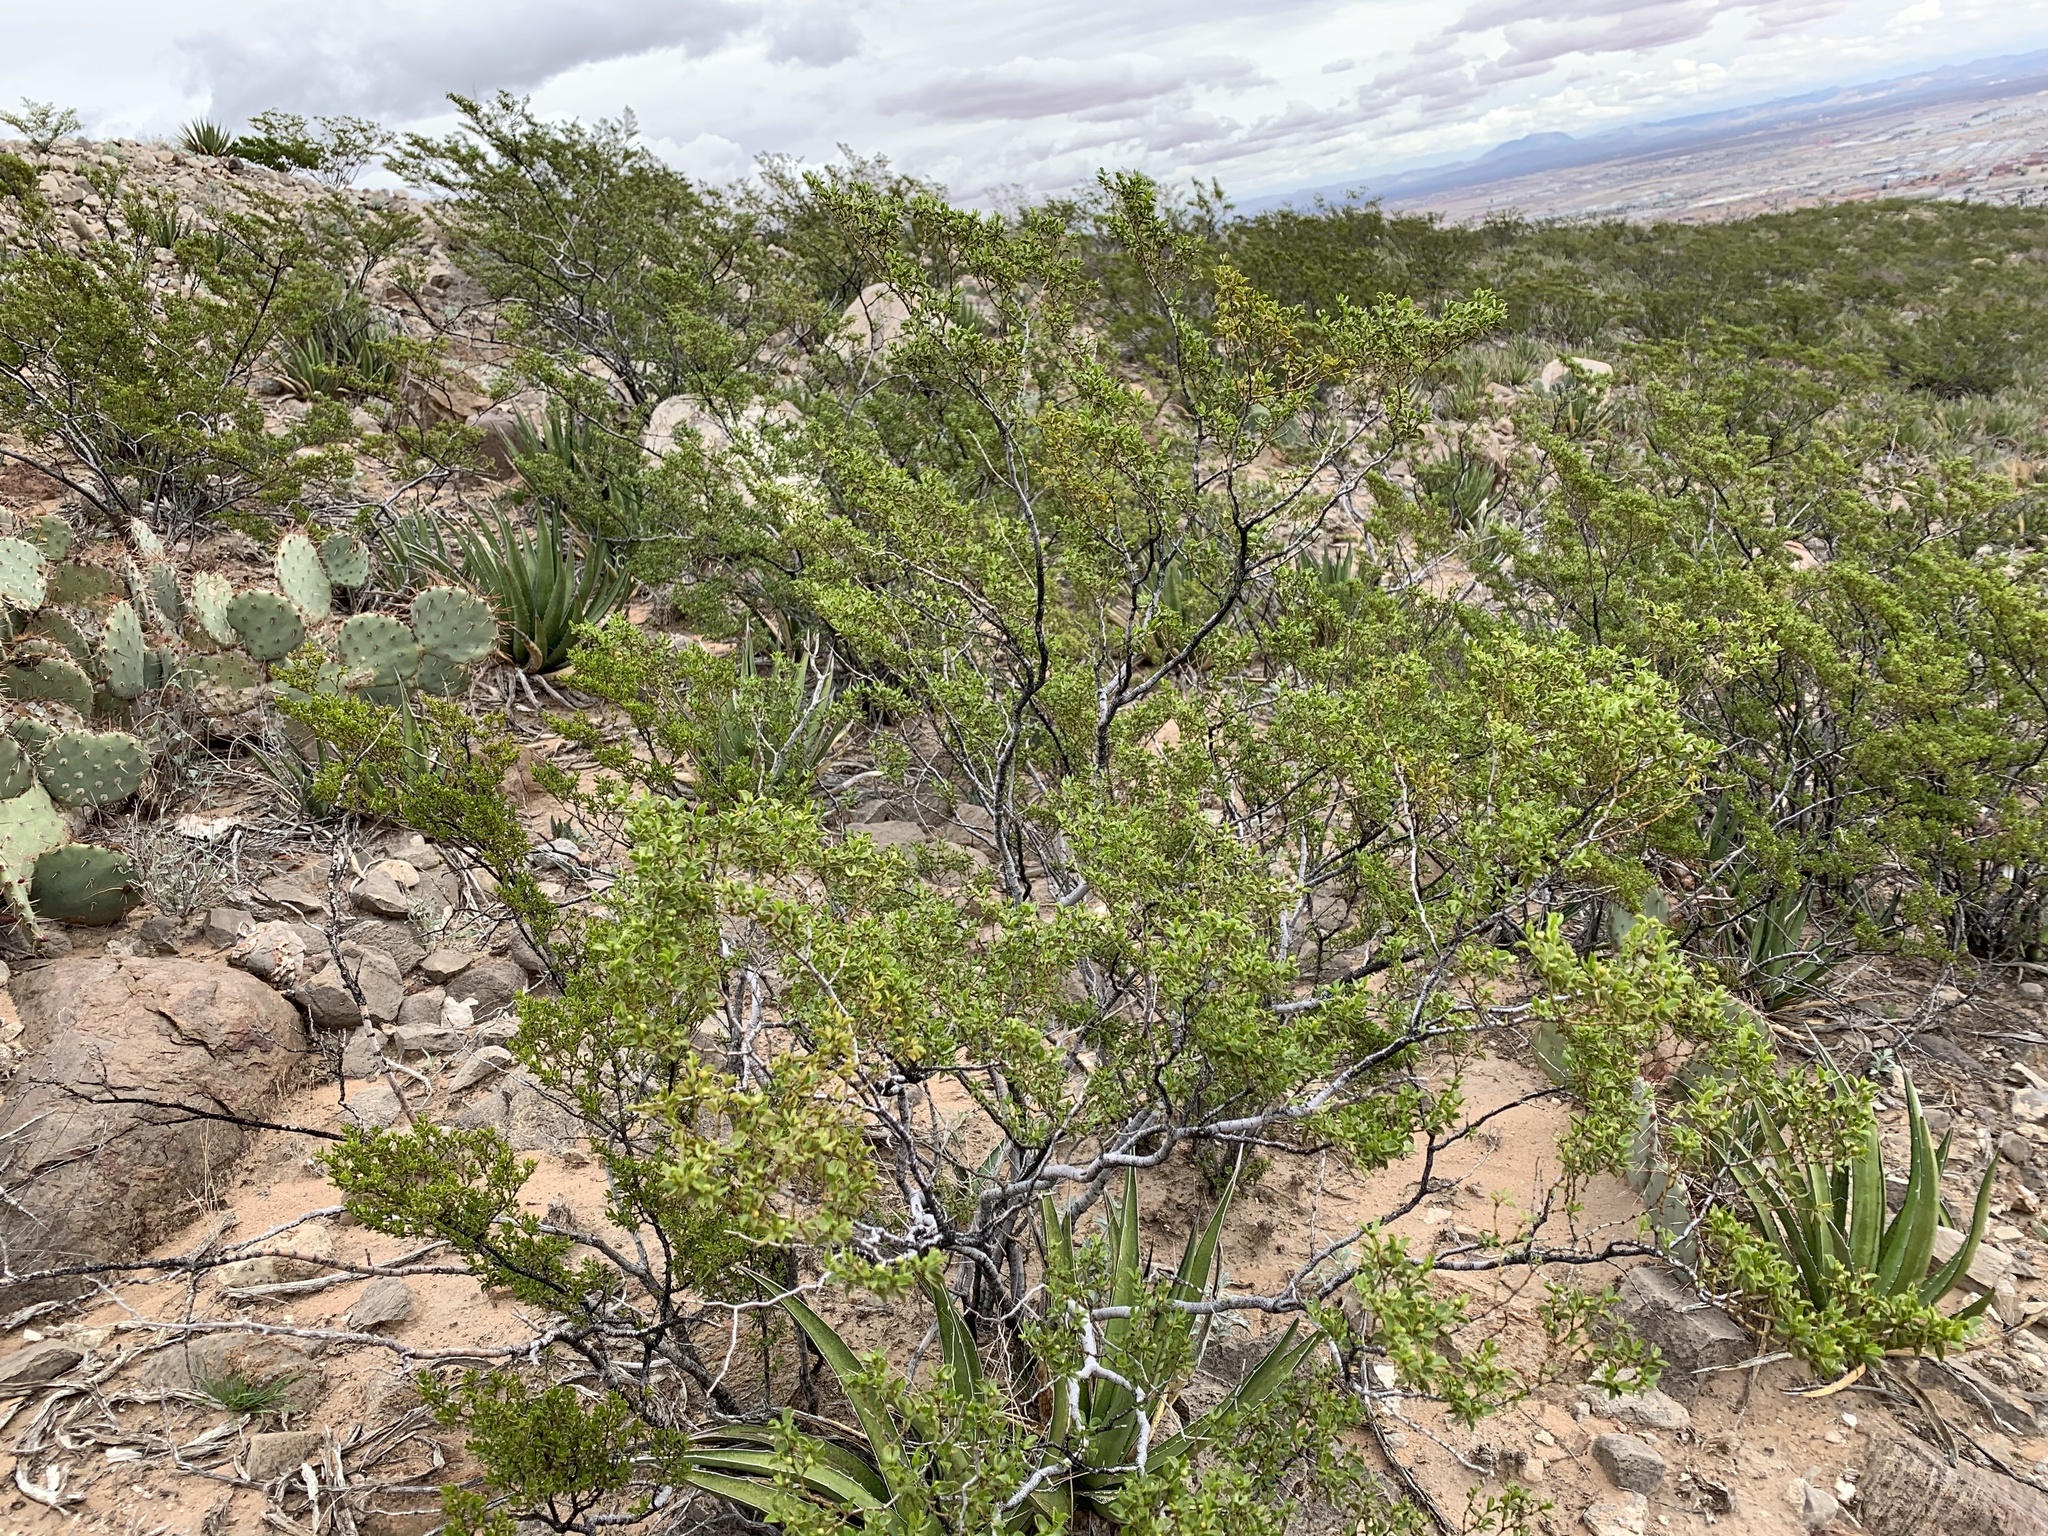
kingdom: Plantae
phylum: Tracheophyta
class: Magnoliopsida
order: Zygophyllales
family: Zygophyllaceae
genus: Larrea
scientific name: Larrea tridentata
